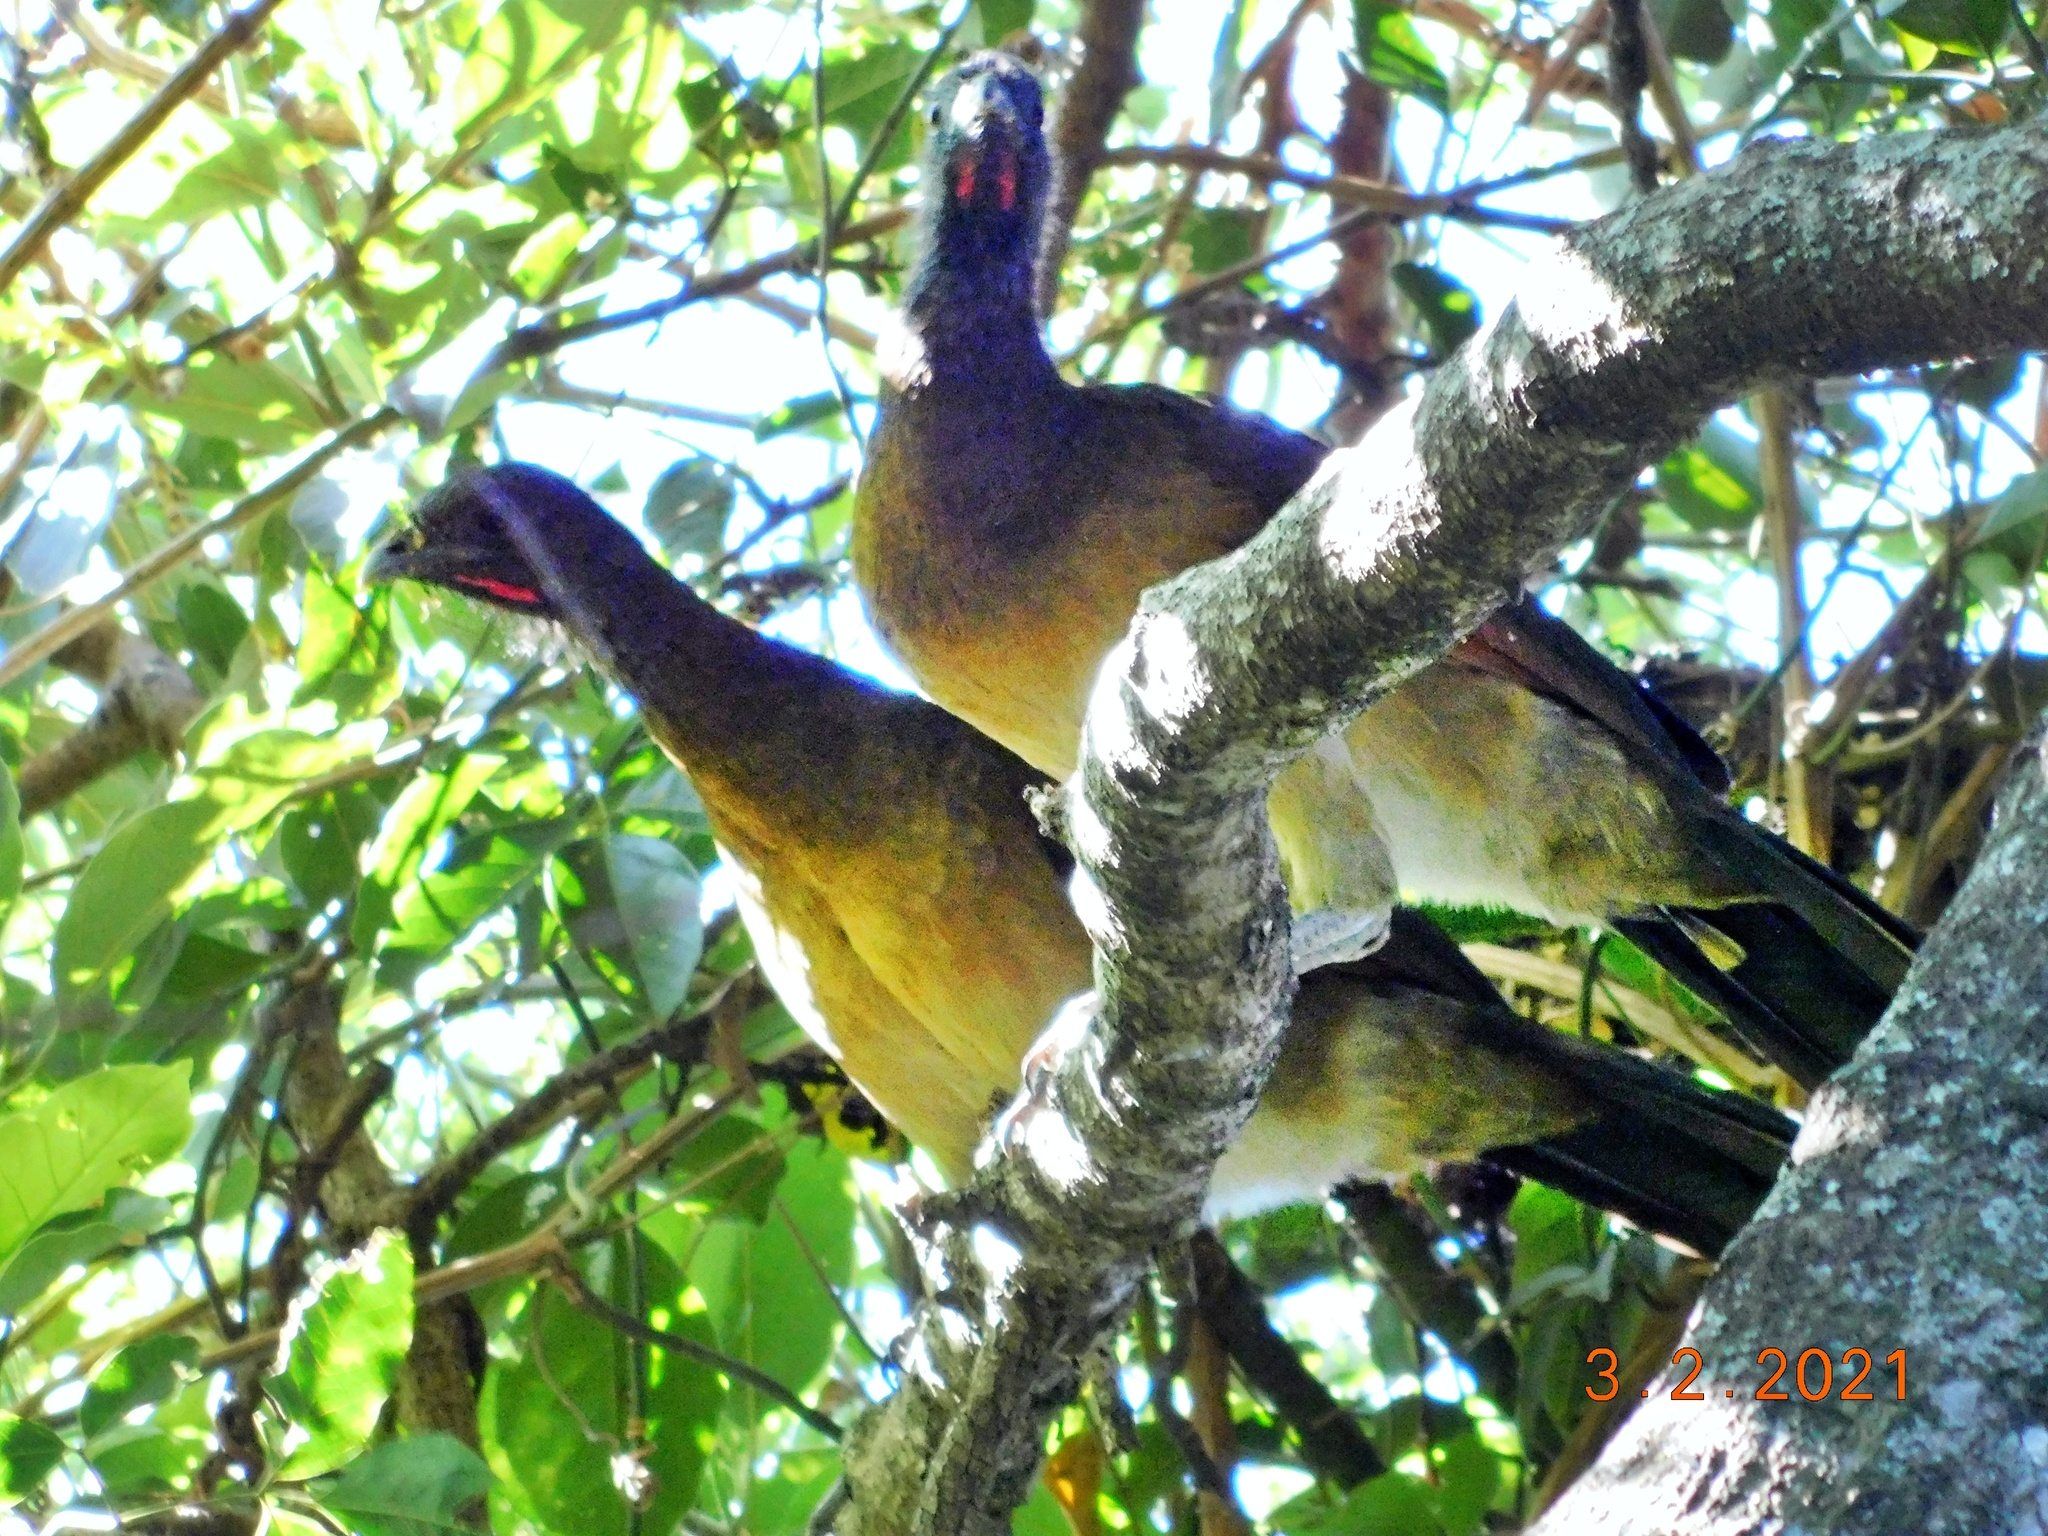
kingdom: Animalia
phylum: Chordata
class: Aves
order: Galliformes
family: Cracidae
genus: Ortalis
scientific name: Ortalis cinereiceps
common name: Grey-headed chachalaca
